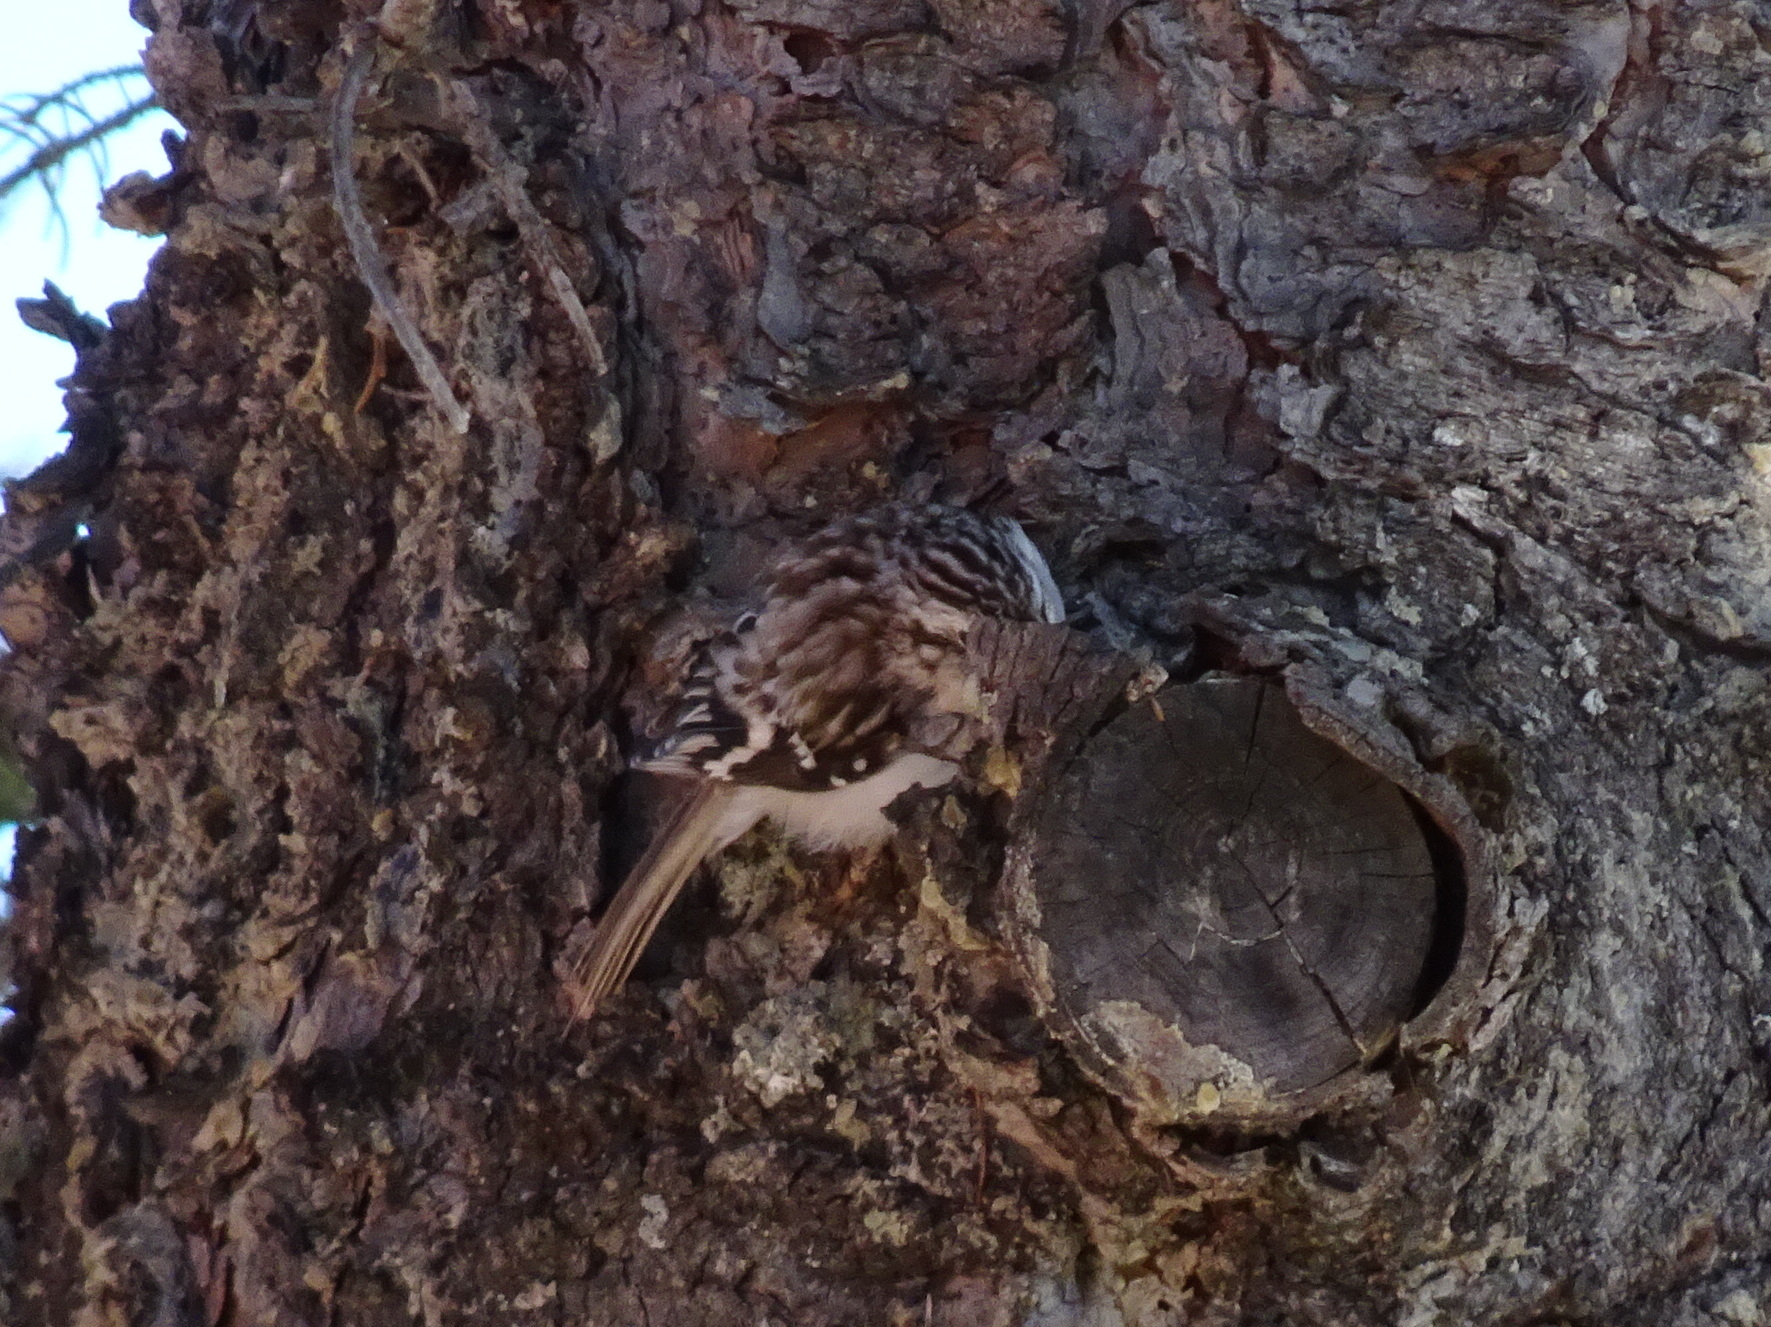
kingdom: Animalia
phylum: Chordata
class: Aves
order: Passeriformes
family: Certhiidae
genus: Certhia
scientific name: Certhia americana
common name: Brown creeper
